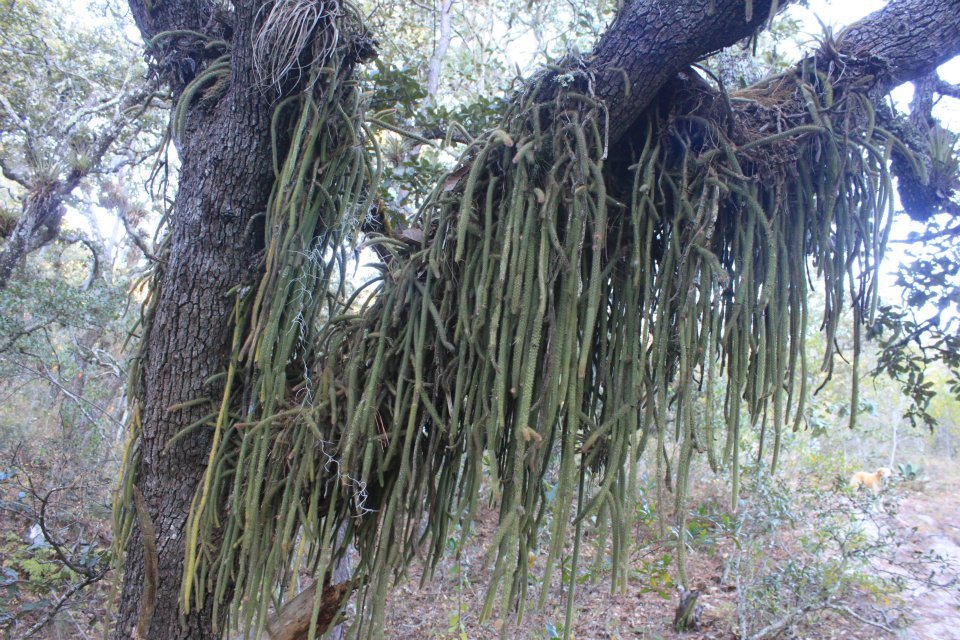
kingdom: Plantae
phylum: Tracheophyta
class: Magnoliopsida
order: Caryophyllales
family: Cactaceae
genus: Aporocactus
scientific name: Aporocactus martianus
